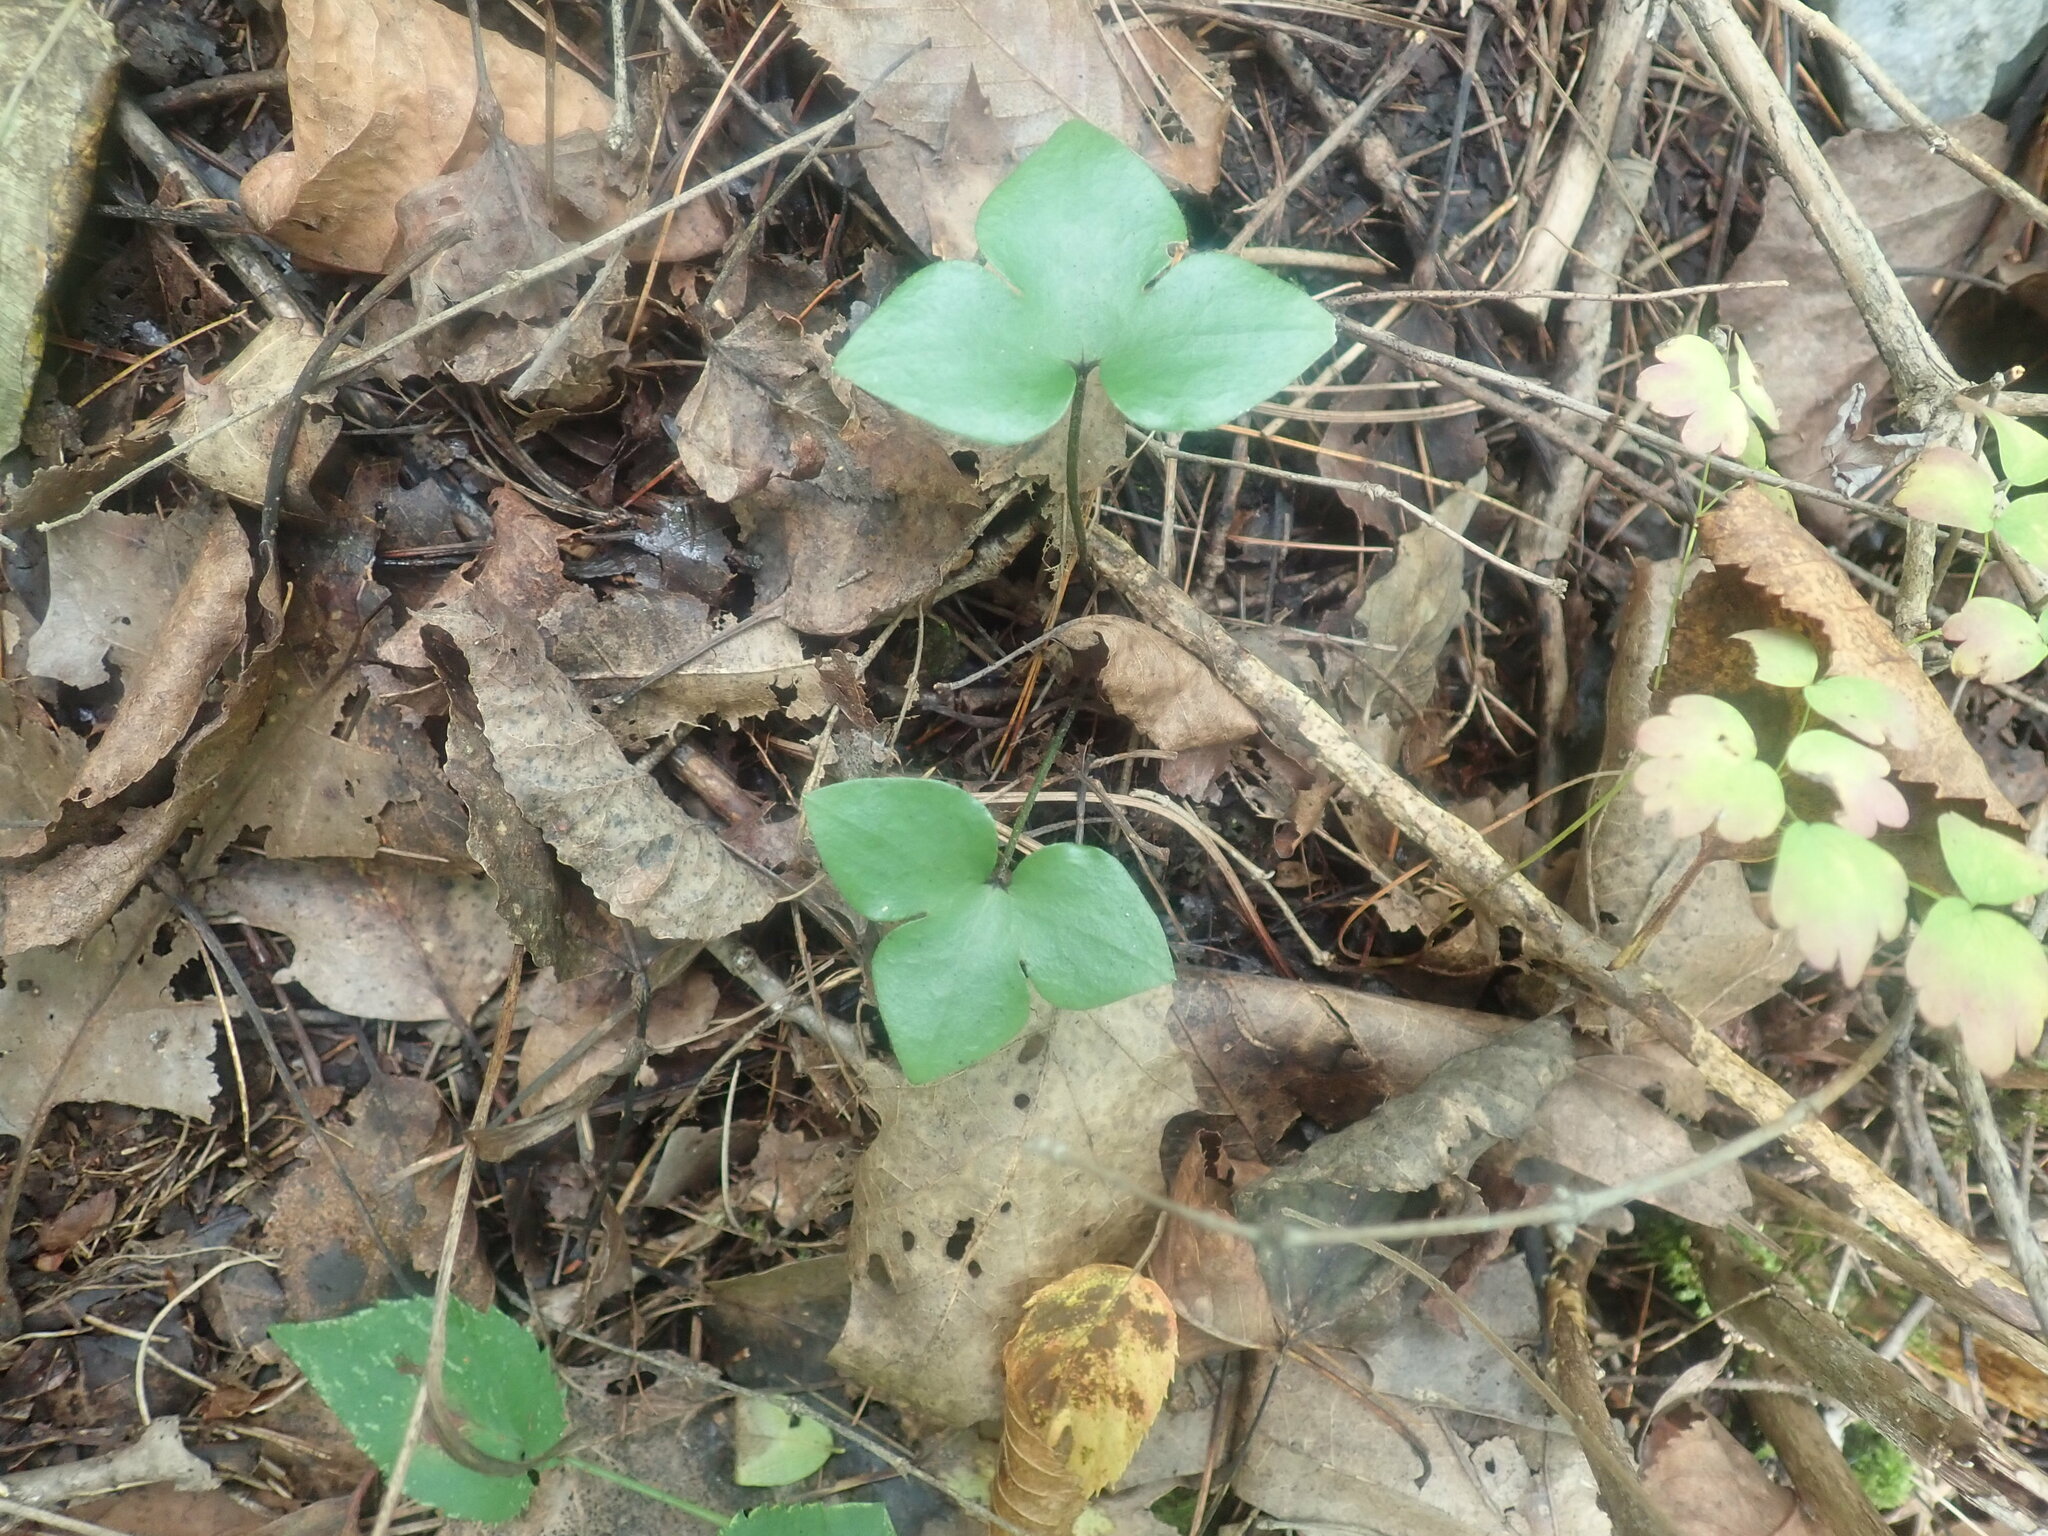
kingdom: Plantae
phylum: Tracheophyta
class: Magnoliopsida
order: Ranunculales
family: Ranunculaceae
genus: Hepatica
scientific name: Hepatica acutiloba
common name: Sharp-lobed hepatica
